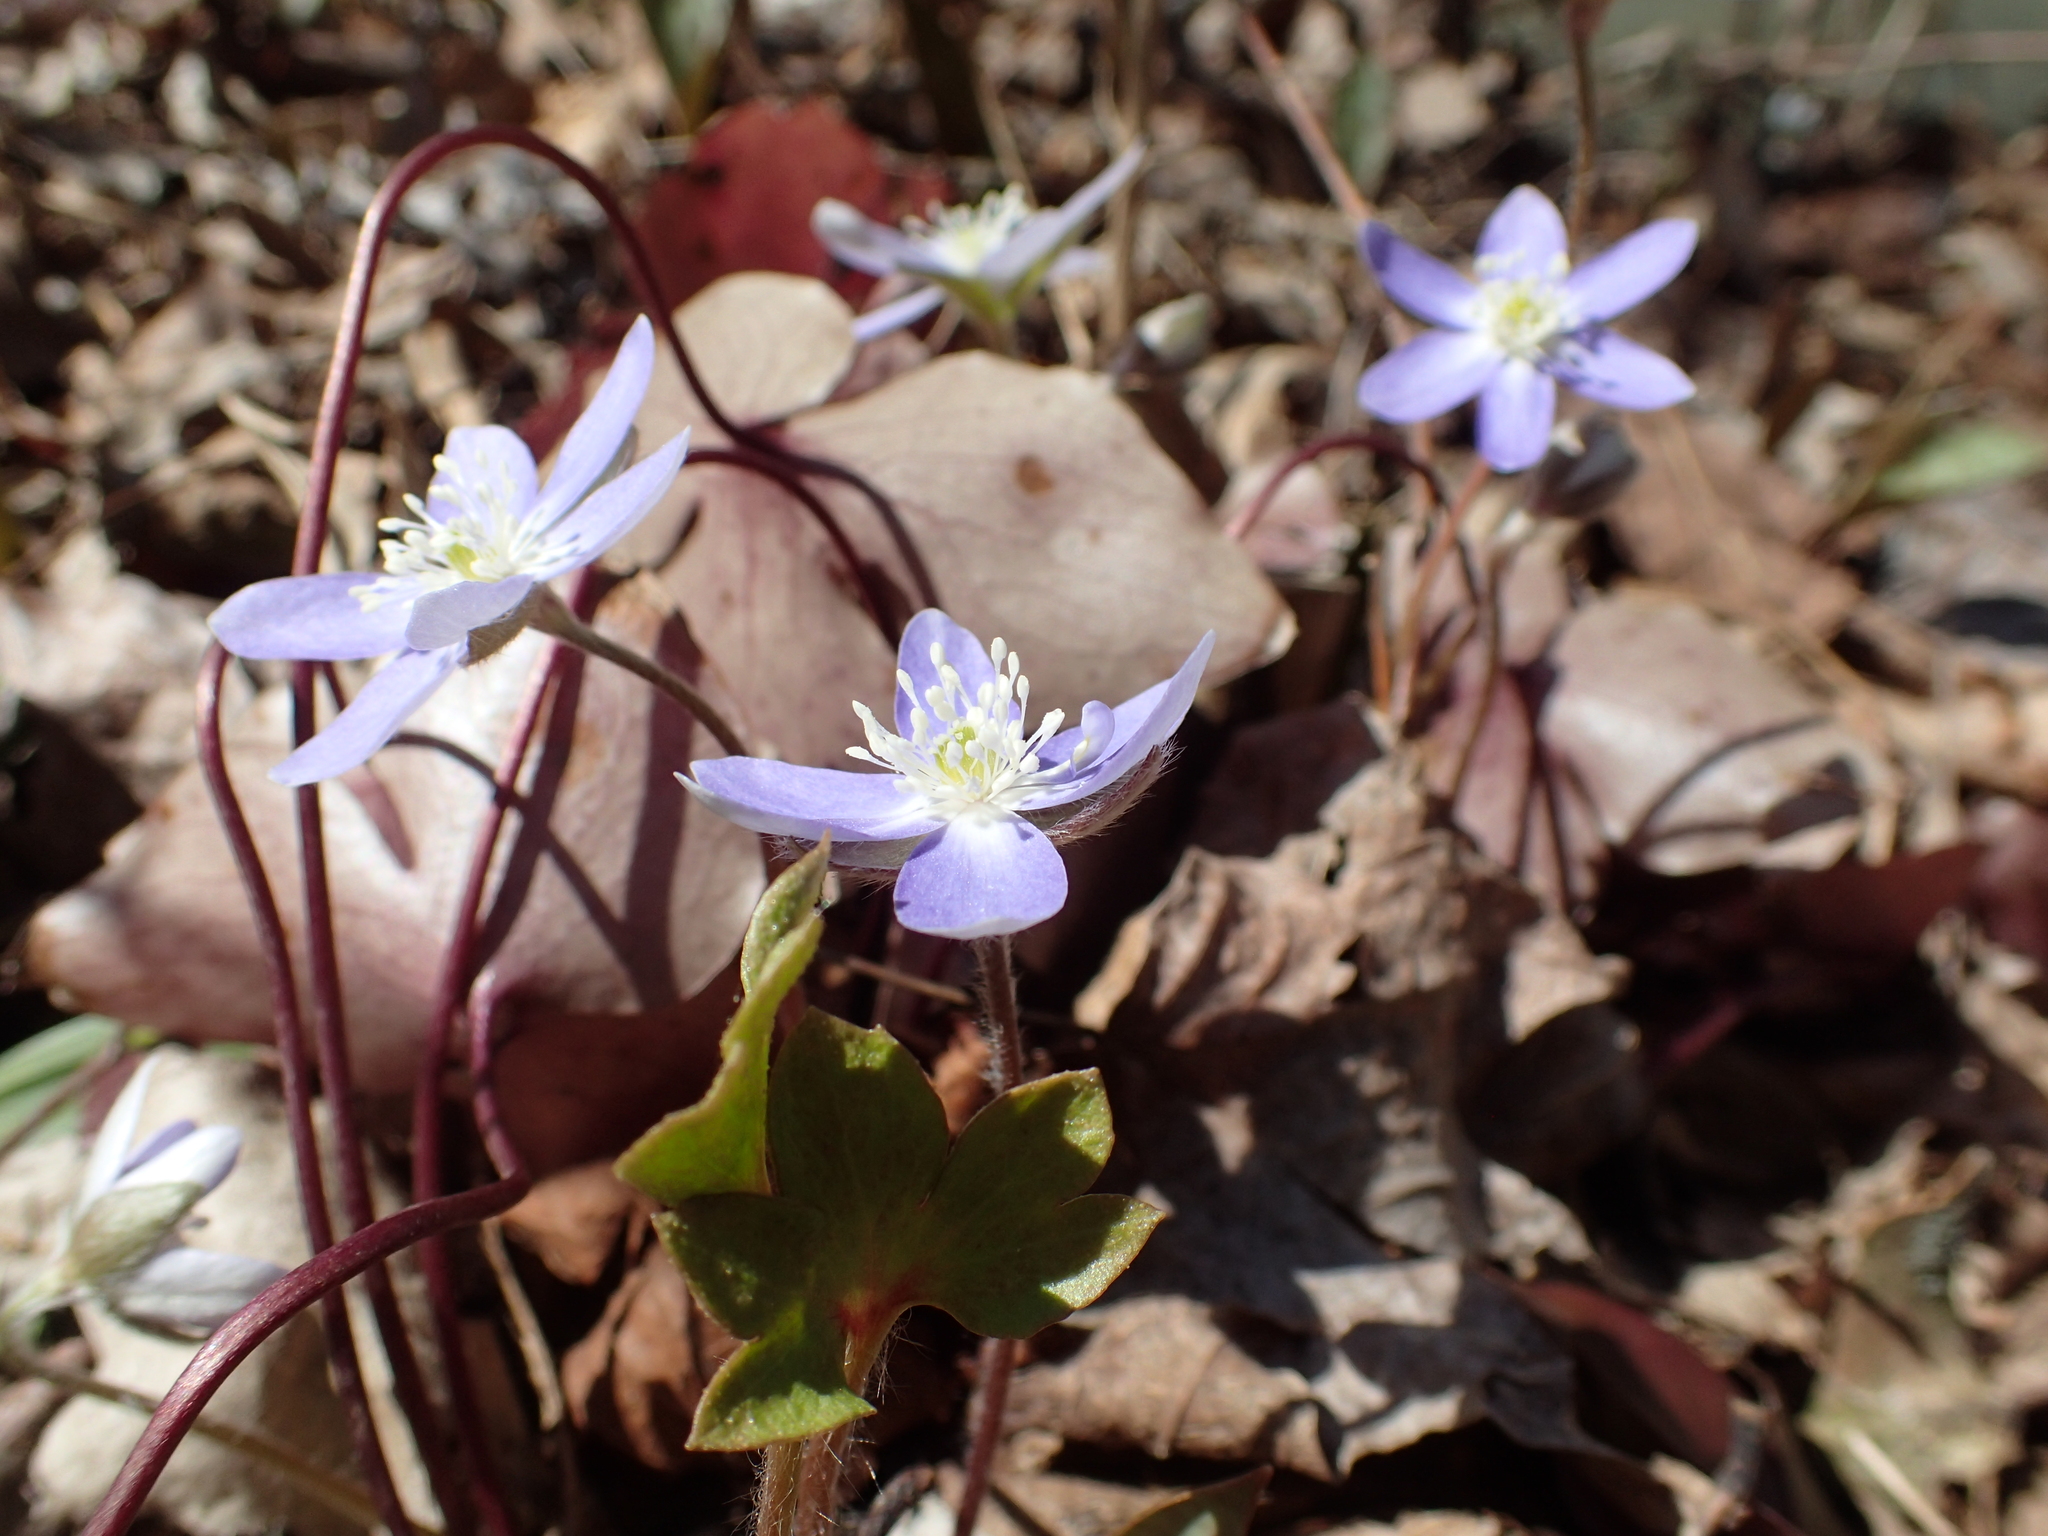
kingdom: Plantae
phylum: Tracheophyta
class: Magnoliopsida
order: Ranunculales
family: Ranunculaceae
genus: Hepatica
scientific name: Hepatica acutiloba
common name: Sharp-lobed hepatica
